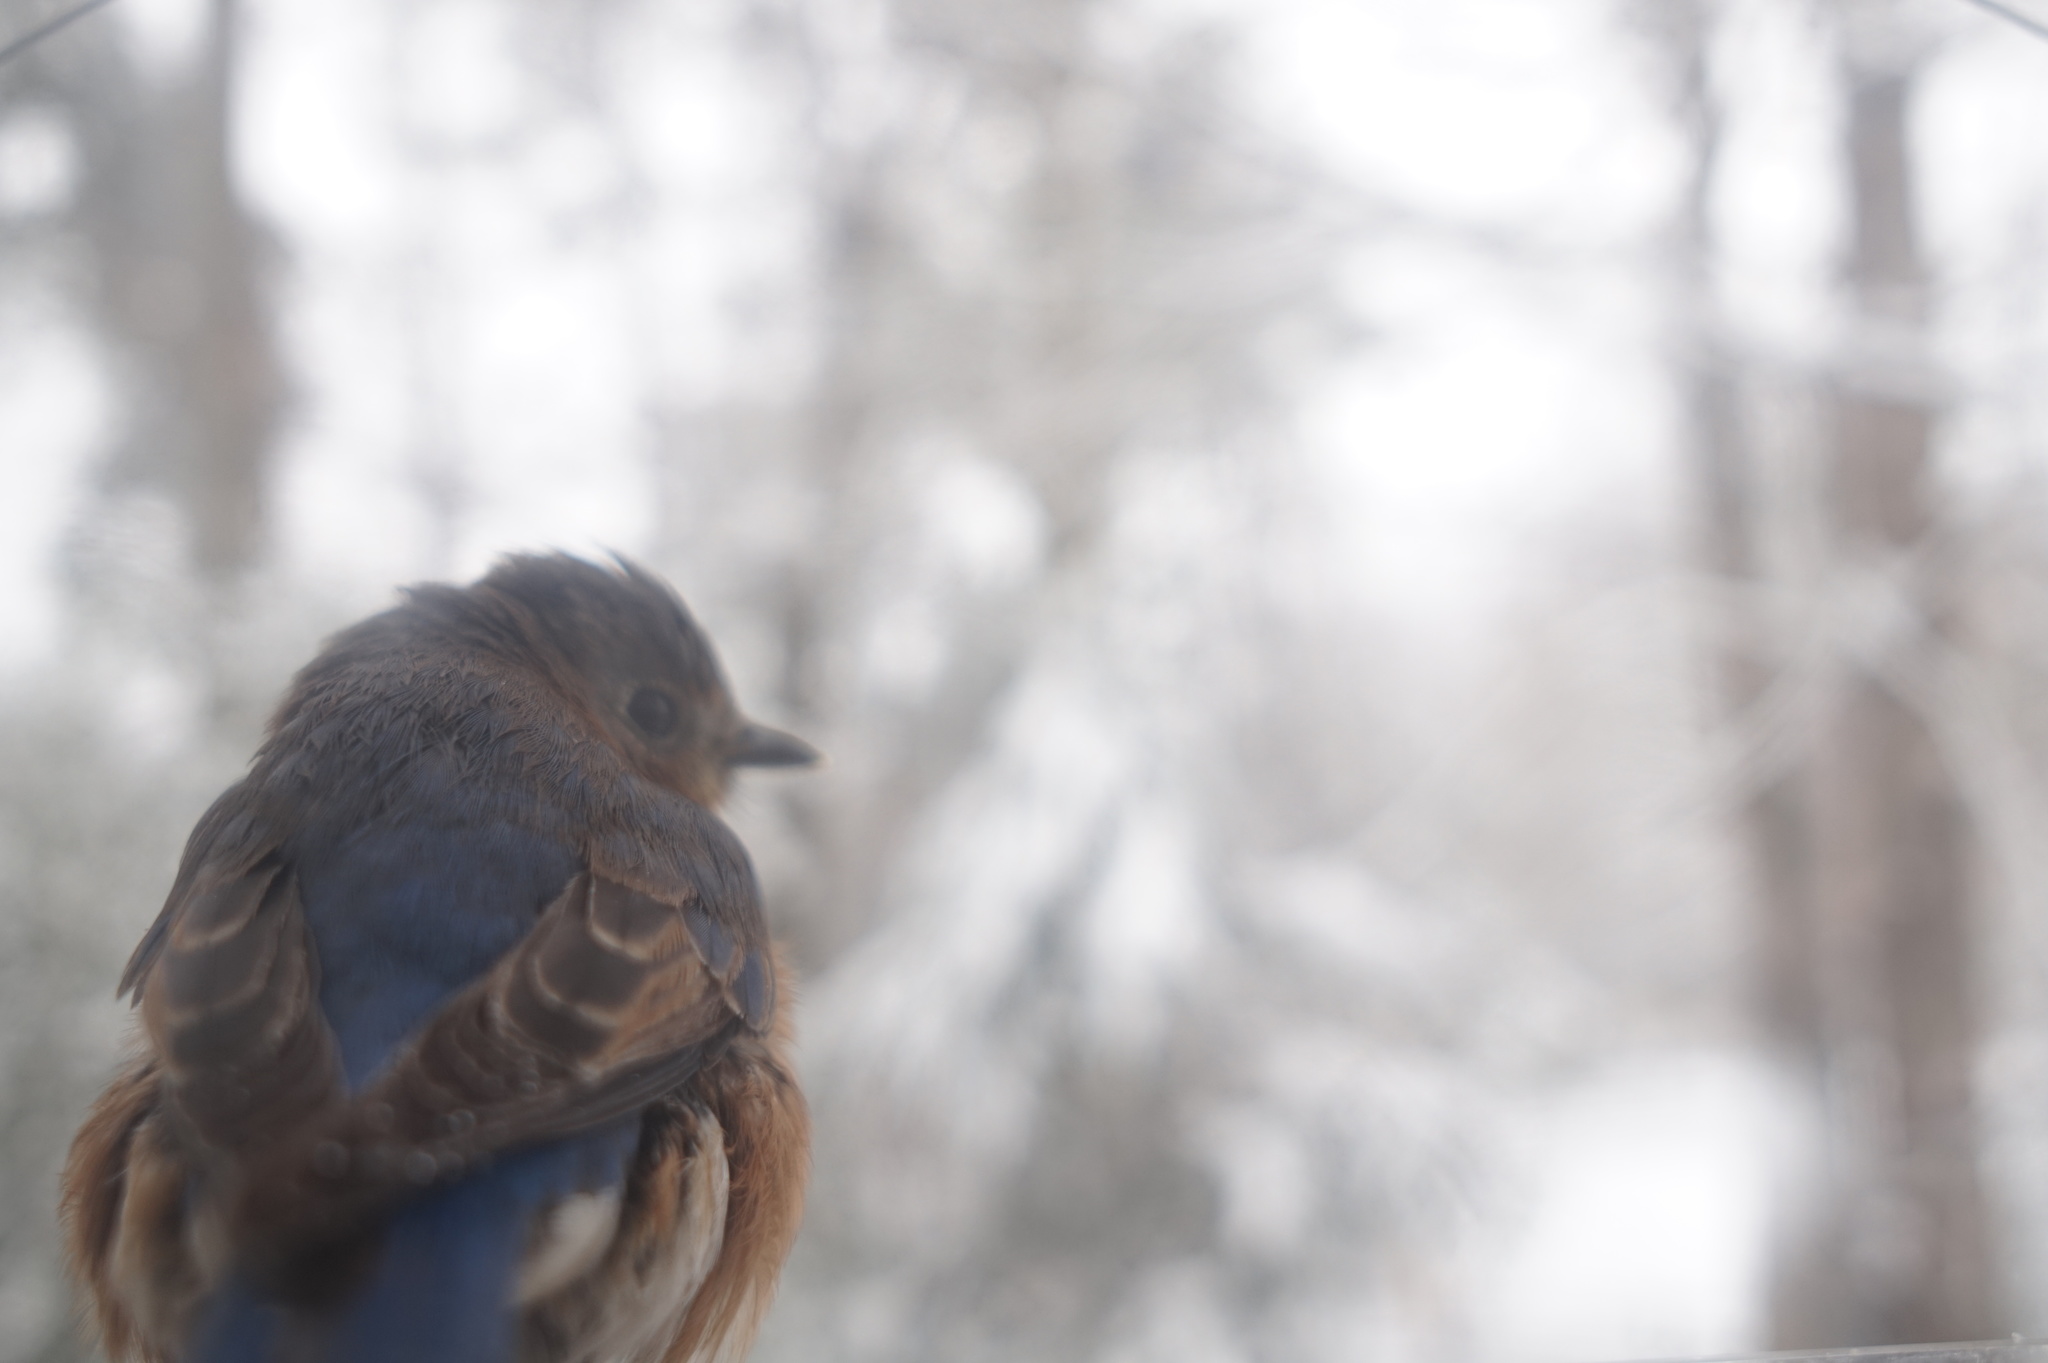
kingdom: Animalia
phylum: Chordata
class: Aves
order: Passeriformes
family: Turdidae
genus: Sialia
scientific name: Sialia sialis
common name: Eastern bluebird
